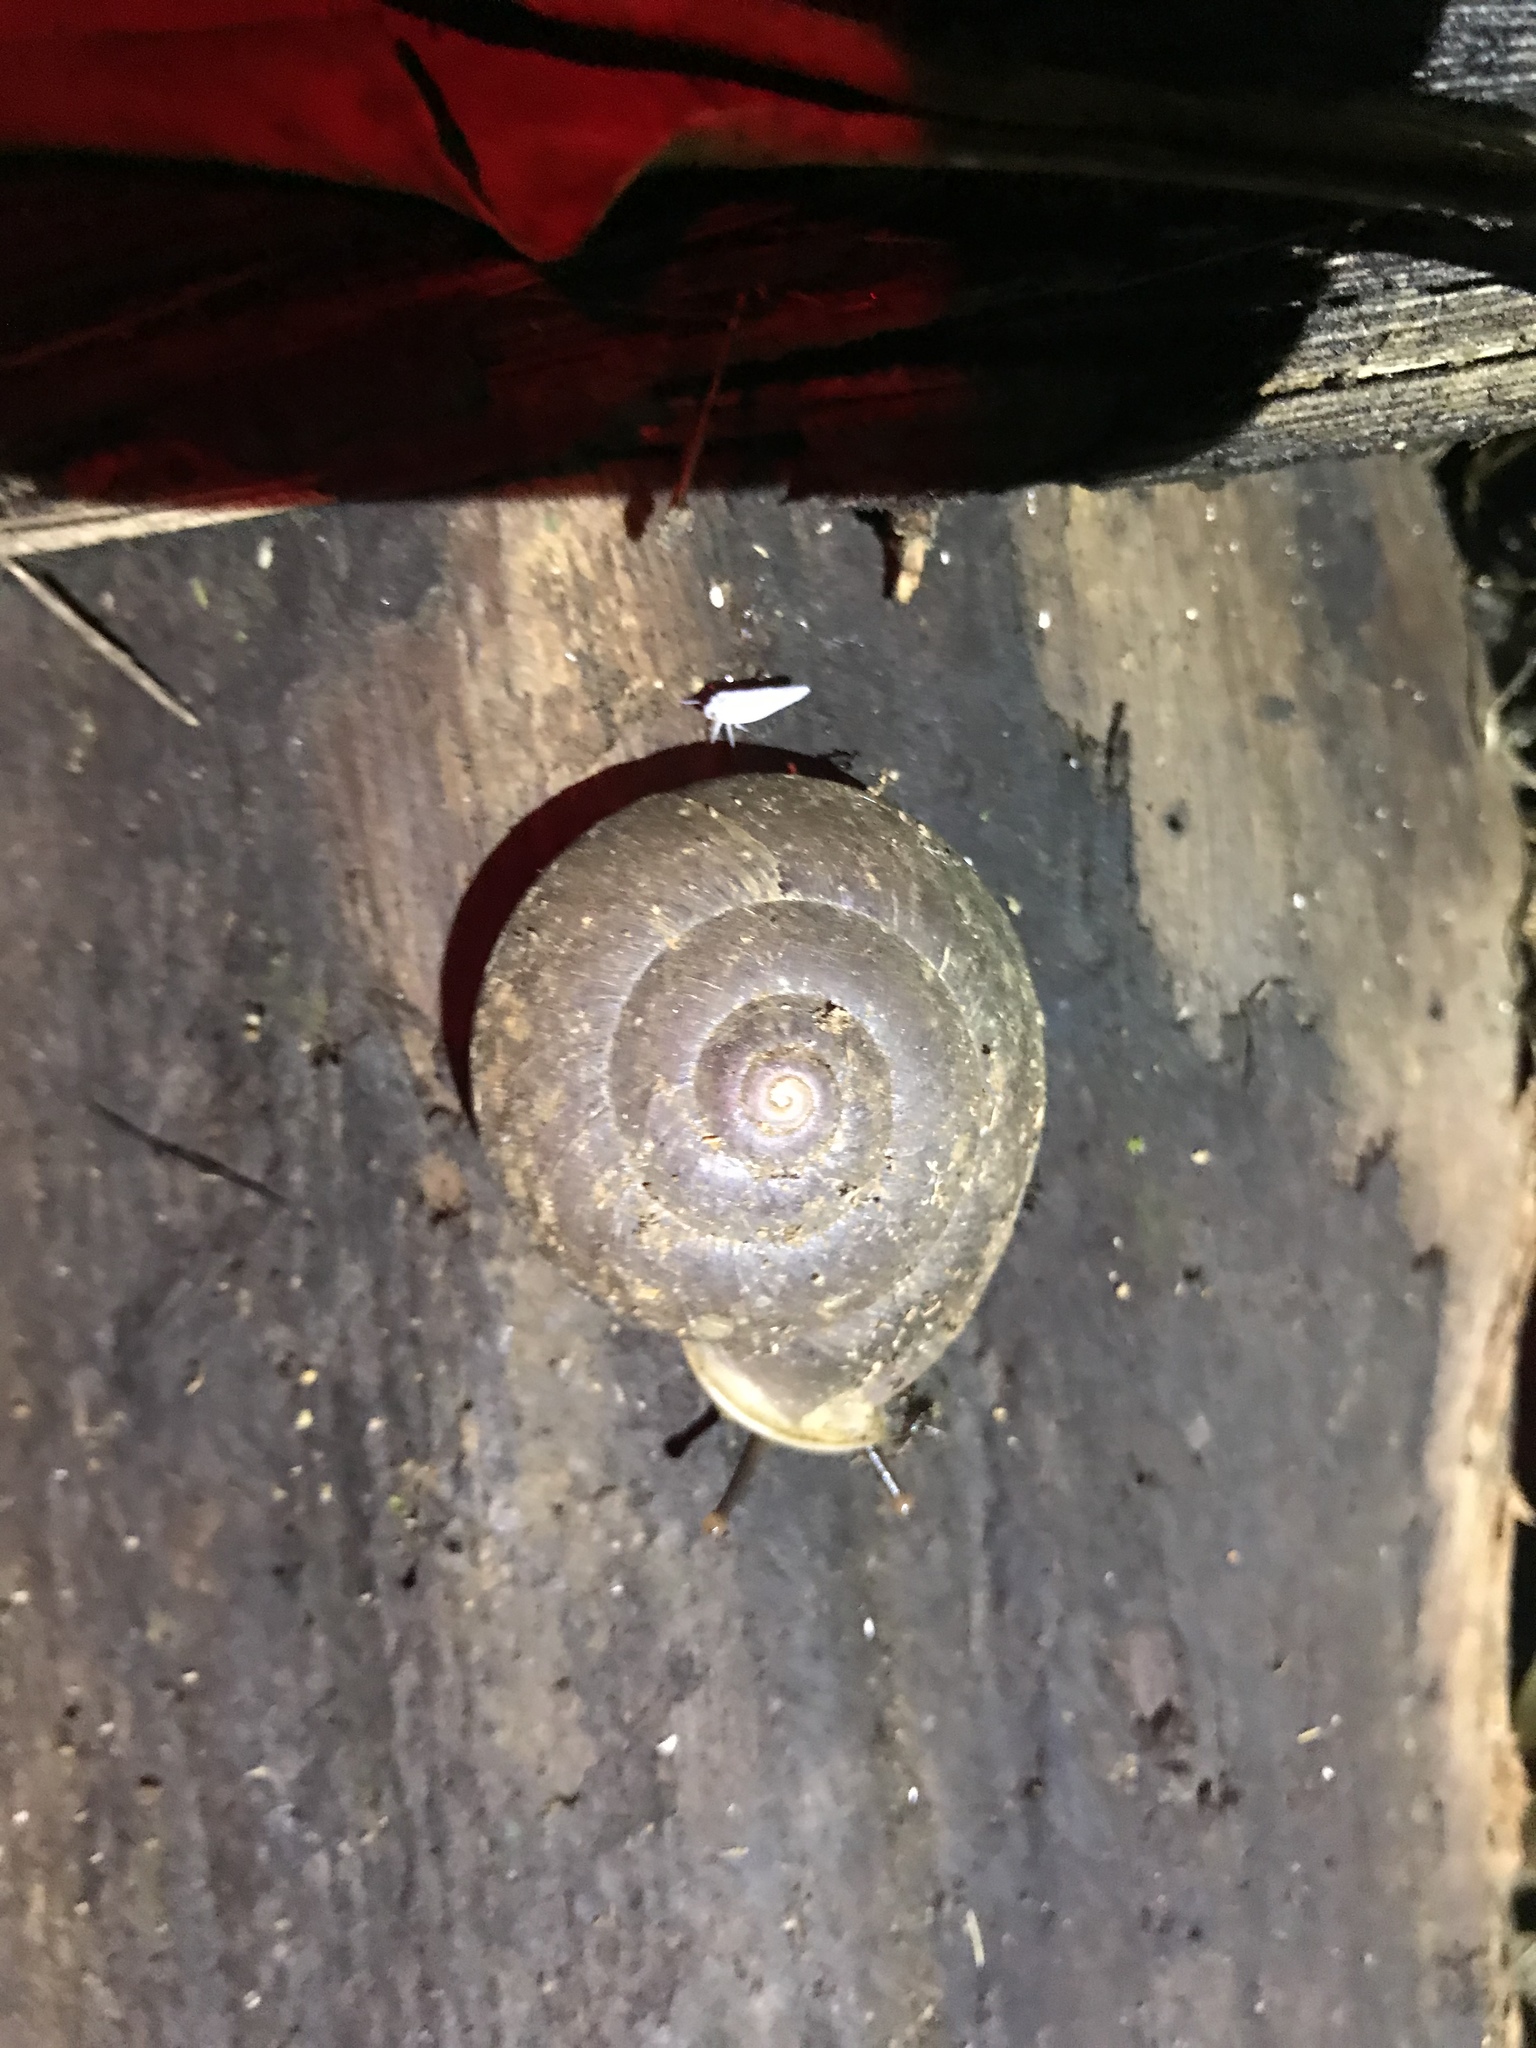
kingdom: Animalia
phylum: Mollusca
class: Gastropoda
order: Stylommatophora
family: Labyrinthidae
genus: Labyrinthus
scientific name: Labyrinthus otis
